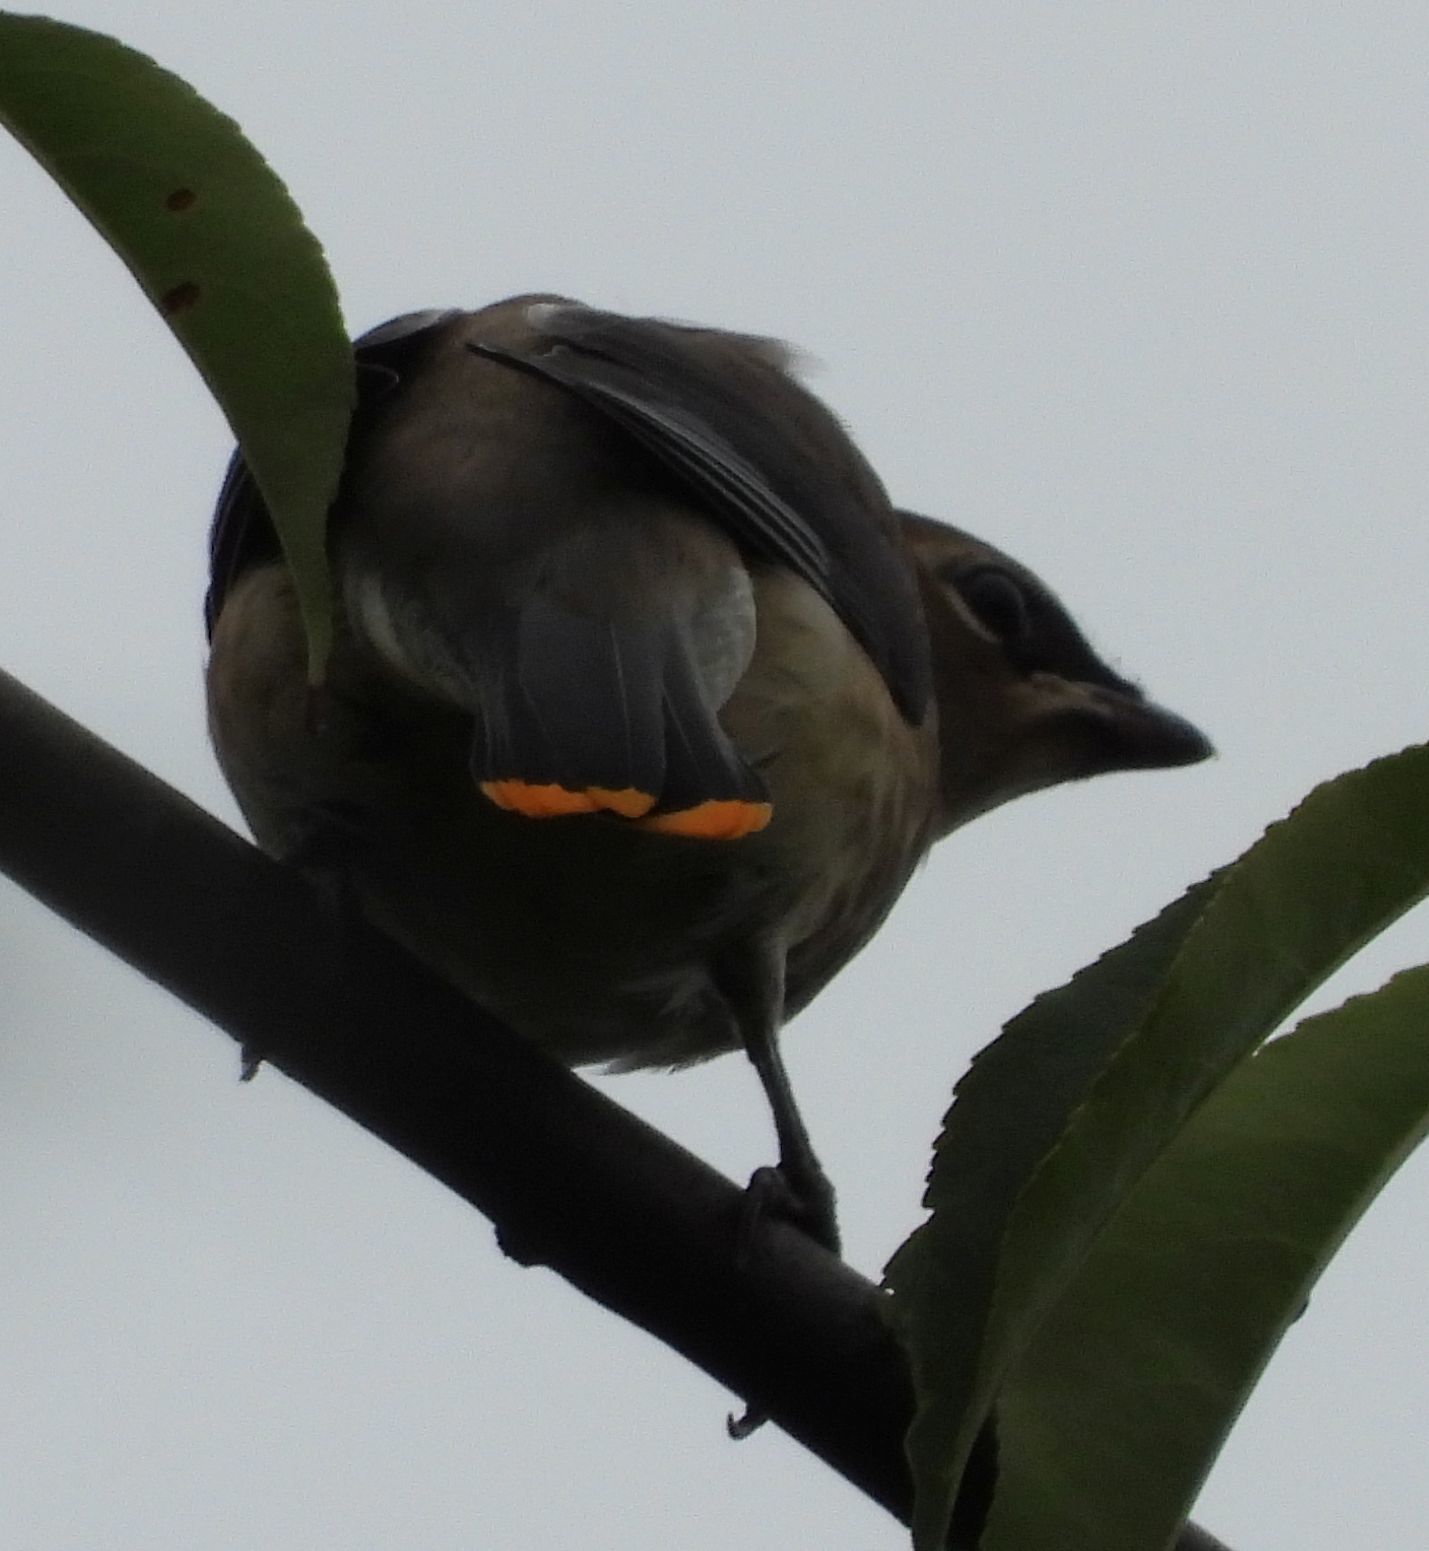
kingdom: Animalia
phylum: Chordata
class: Aves
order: Passeriformes
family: Bombycillidae
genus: Bombycilla
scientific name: Bombycilla cedrorum
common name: Cedar waxwing
